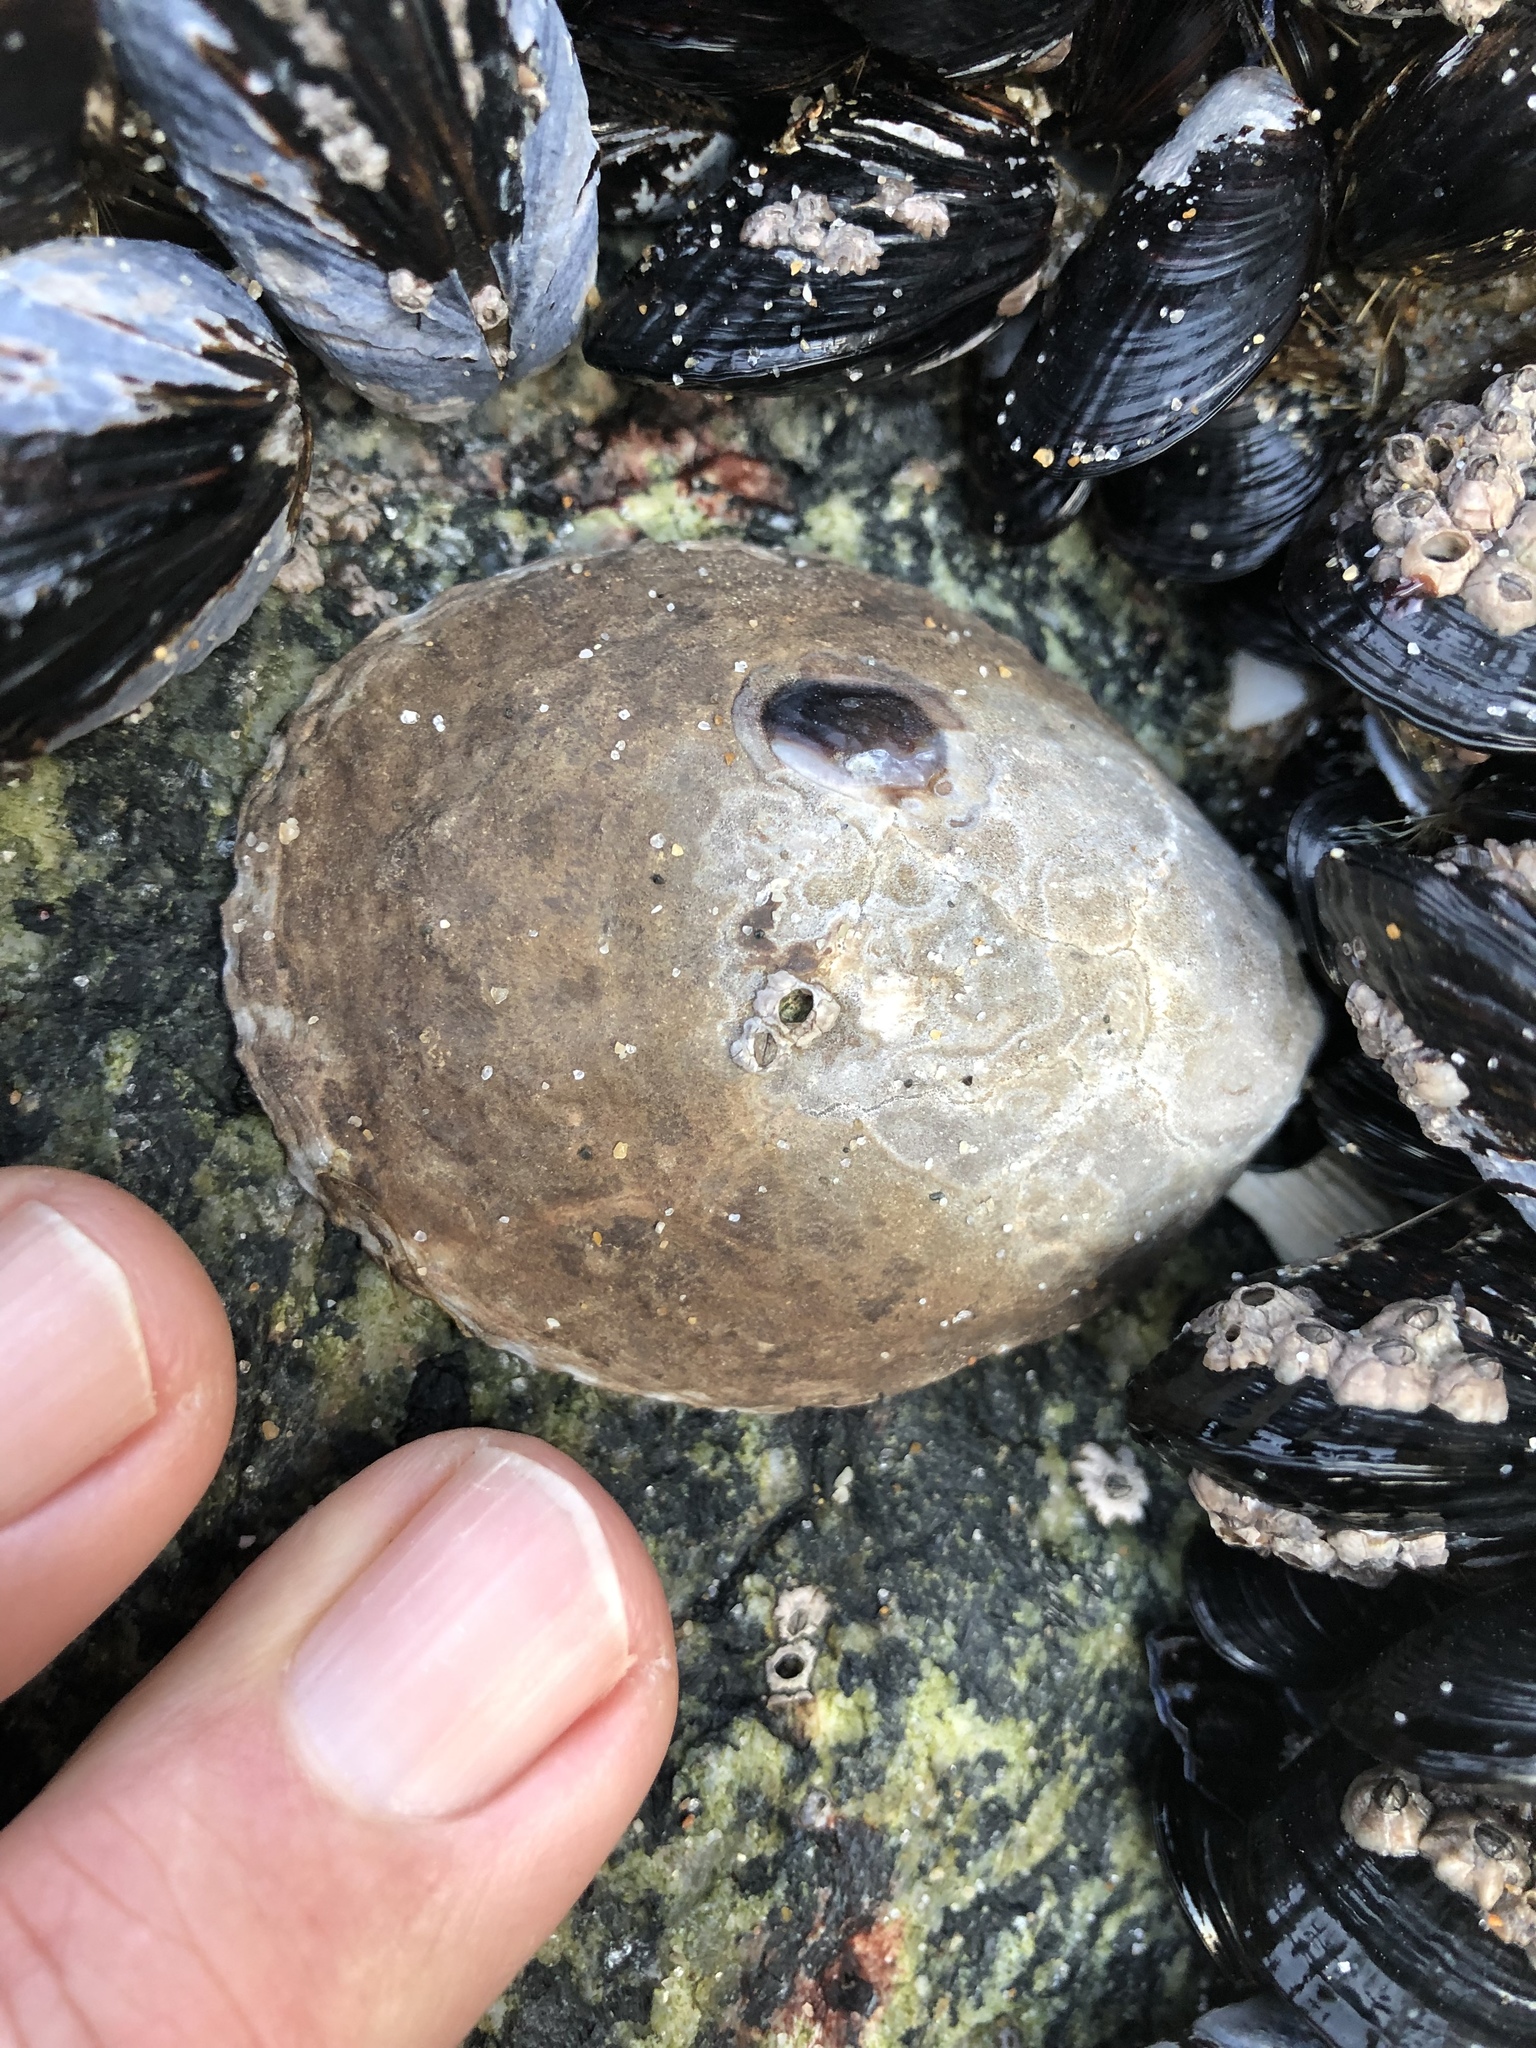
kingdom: Animalia
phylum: Mollusca
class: Gastropoda
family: Lottiidae
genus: Lottia
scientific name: Lottia gigantea
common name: Owl limpet
